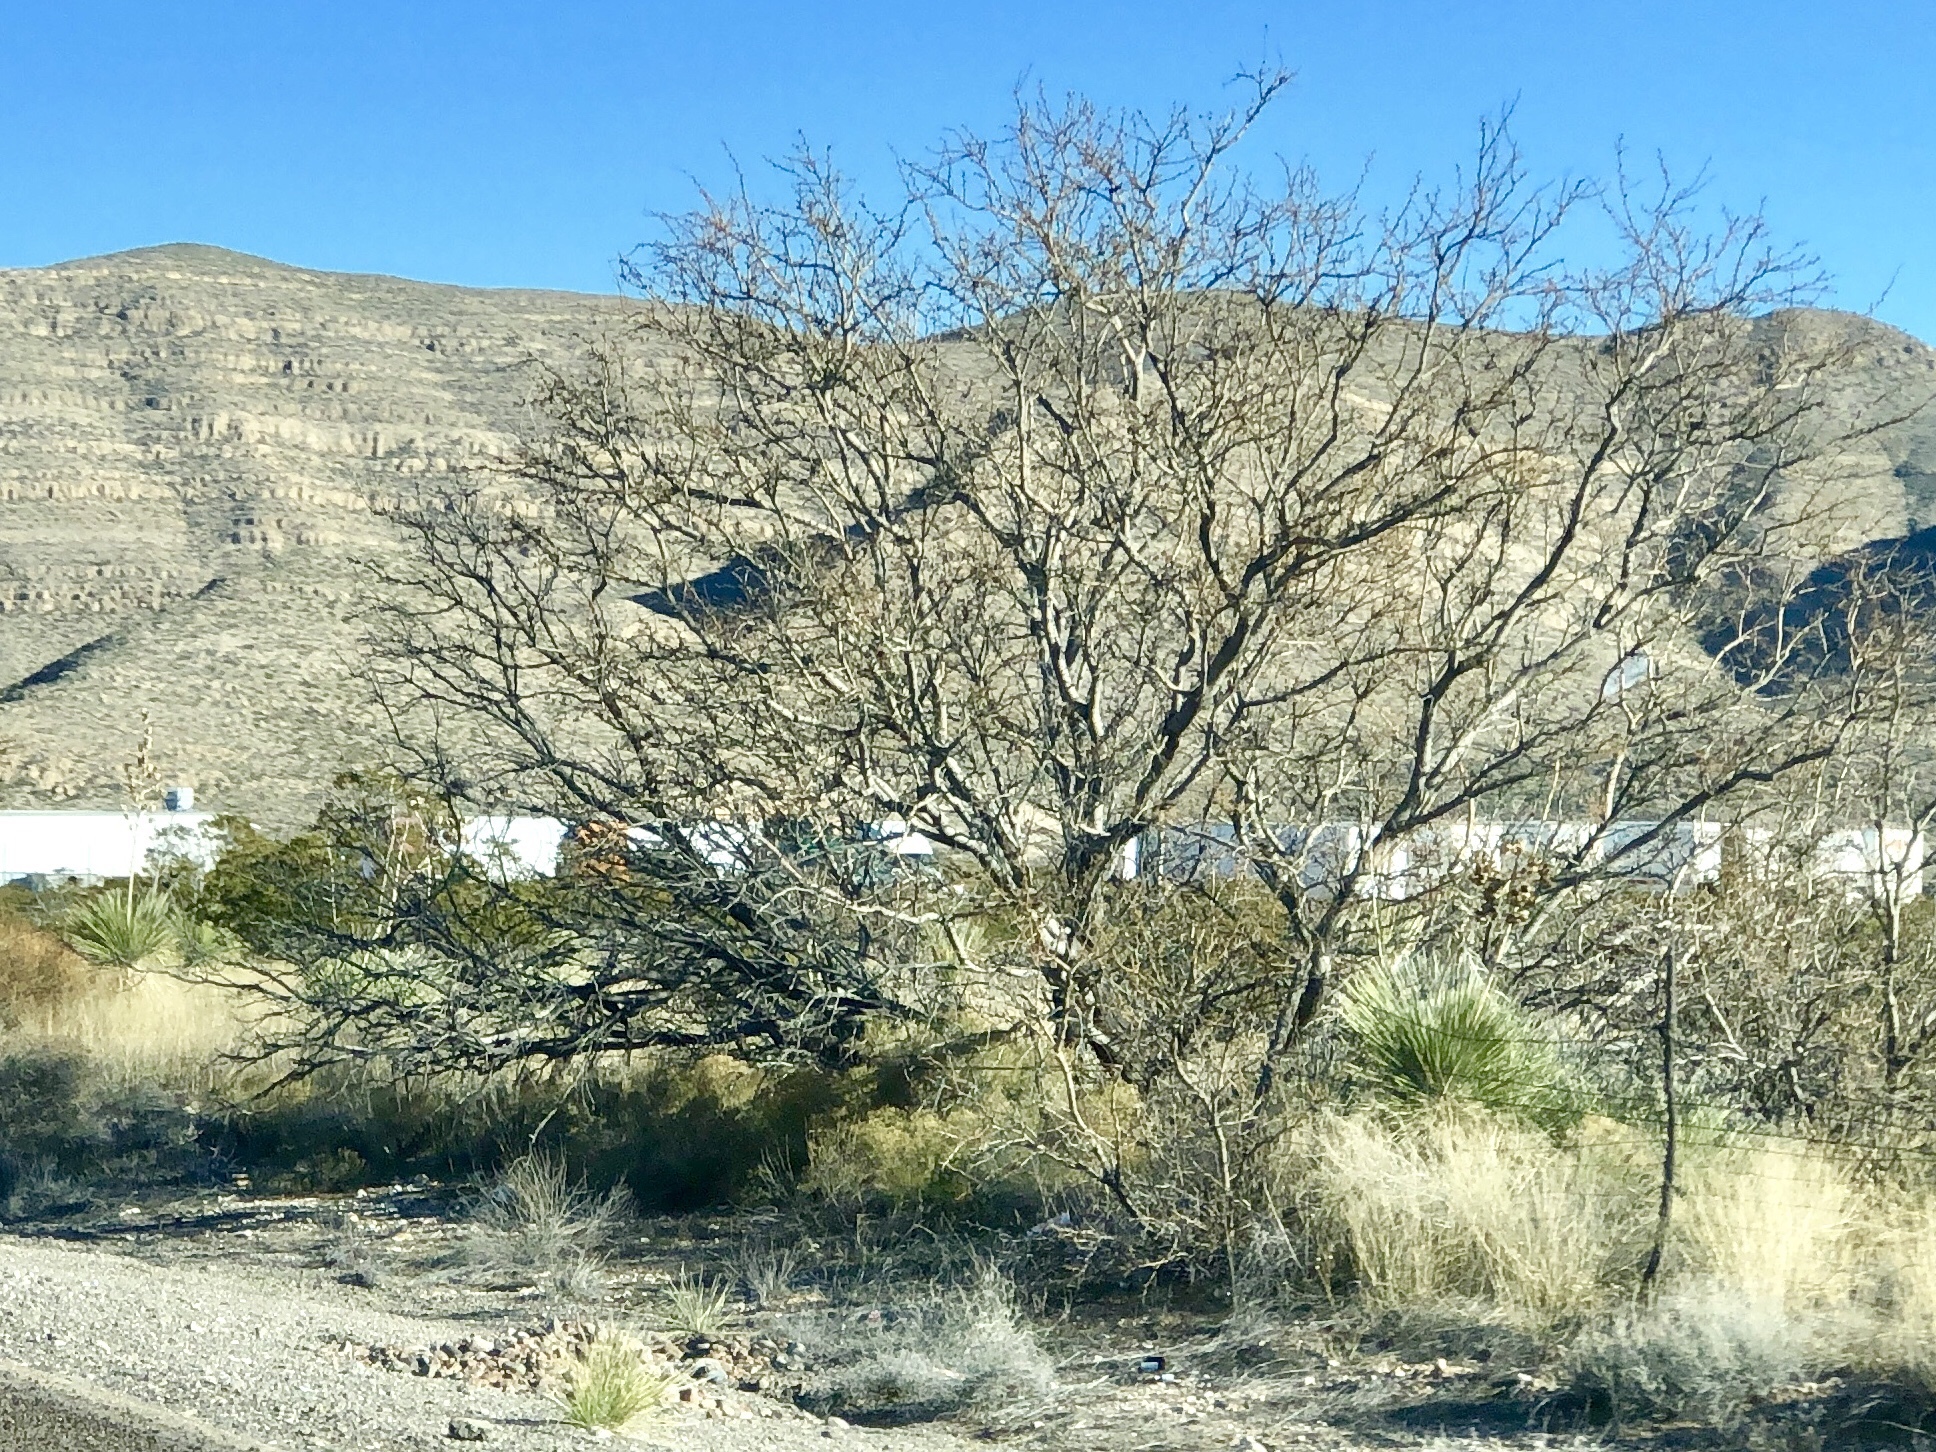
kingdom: Plantae
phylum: Tracheophyta
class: Magnoliopsida
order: Fabales
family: Fabaceae
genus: Prosopis
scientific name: Prosopis glandulosa
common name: Honey mesquite
